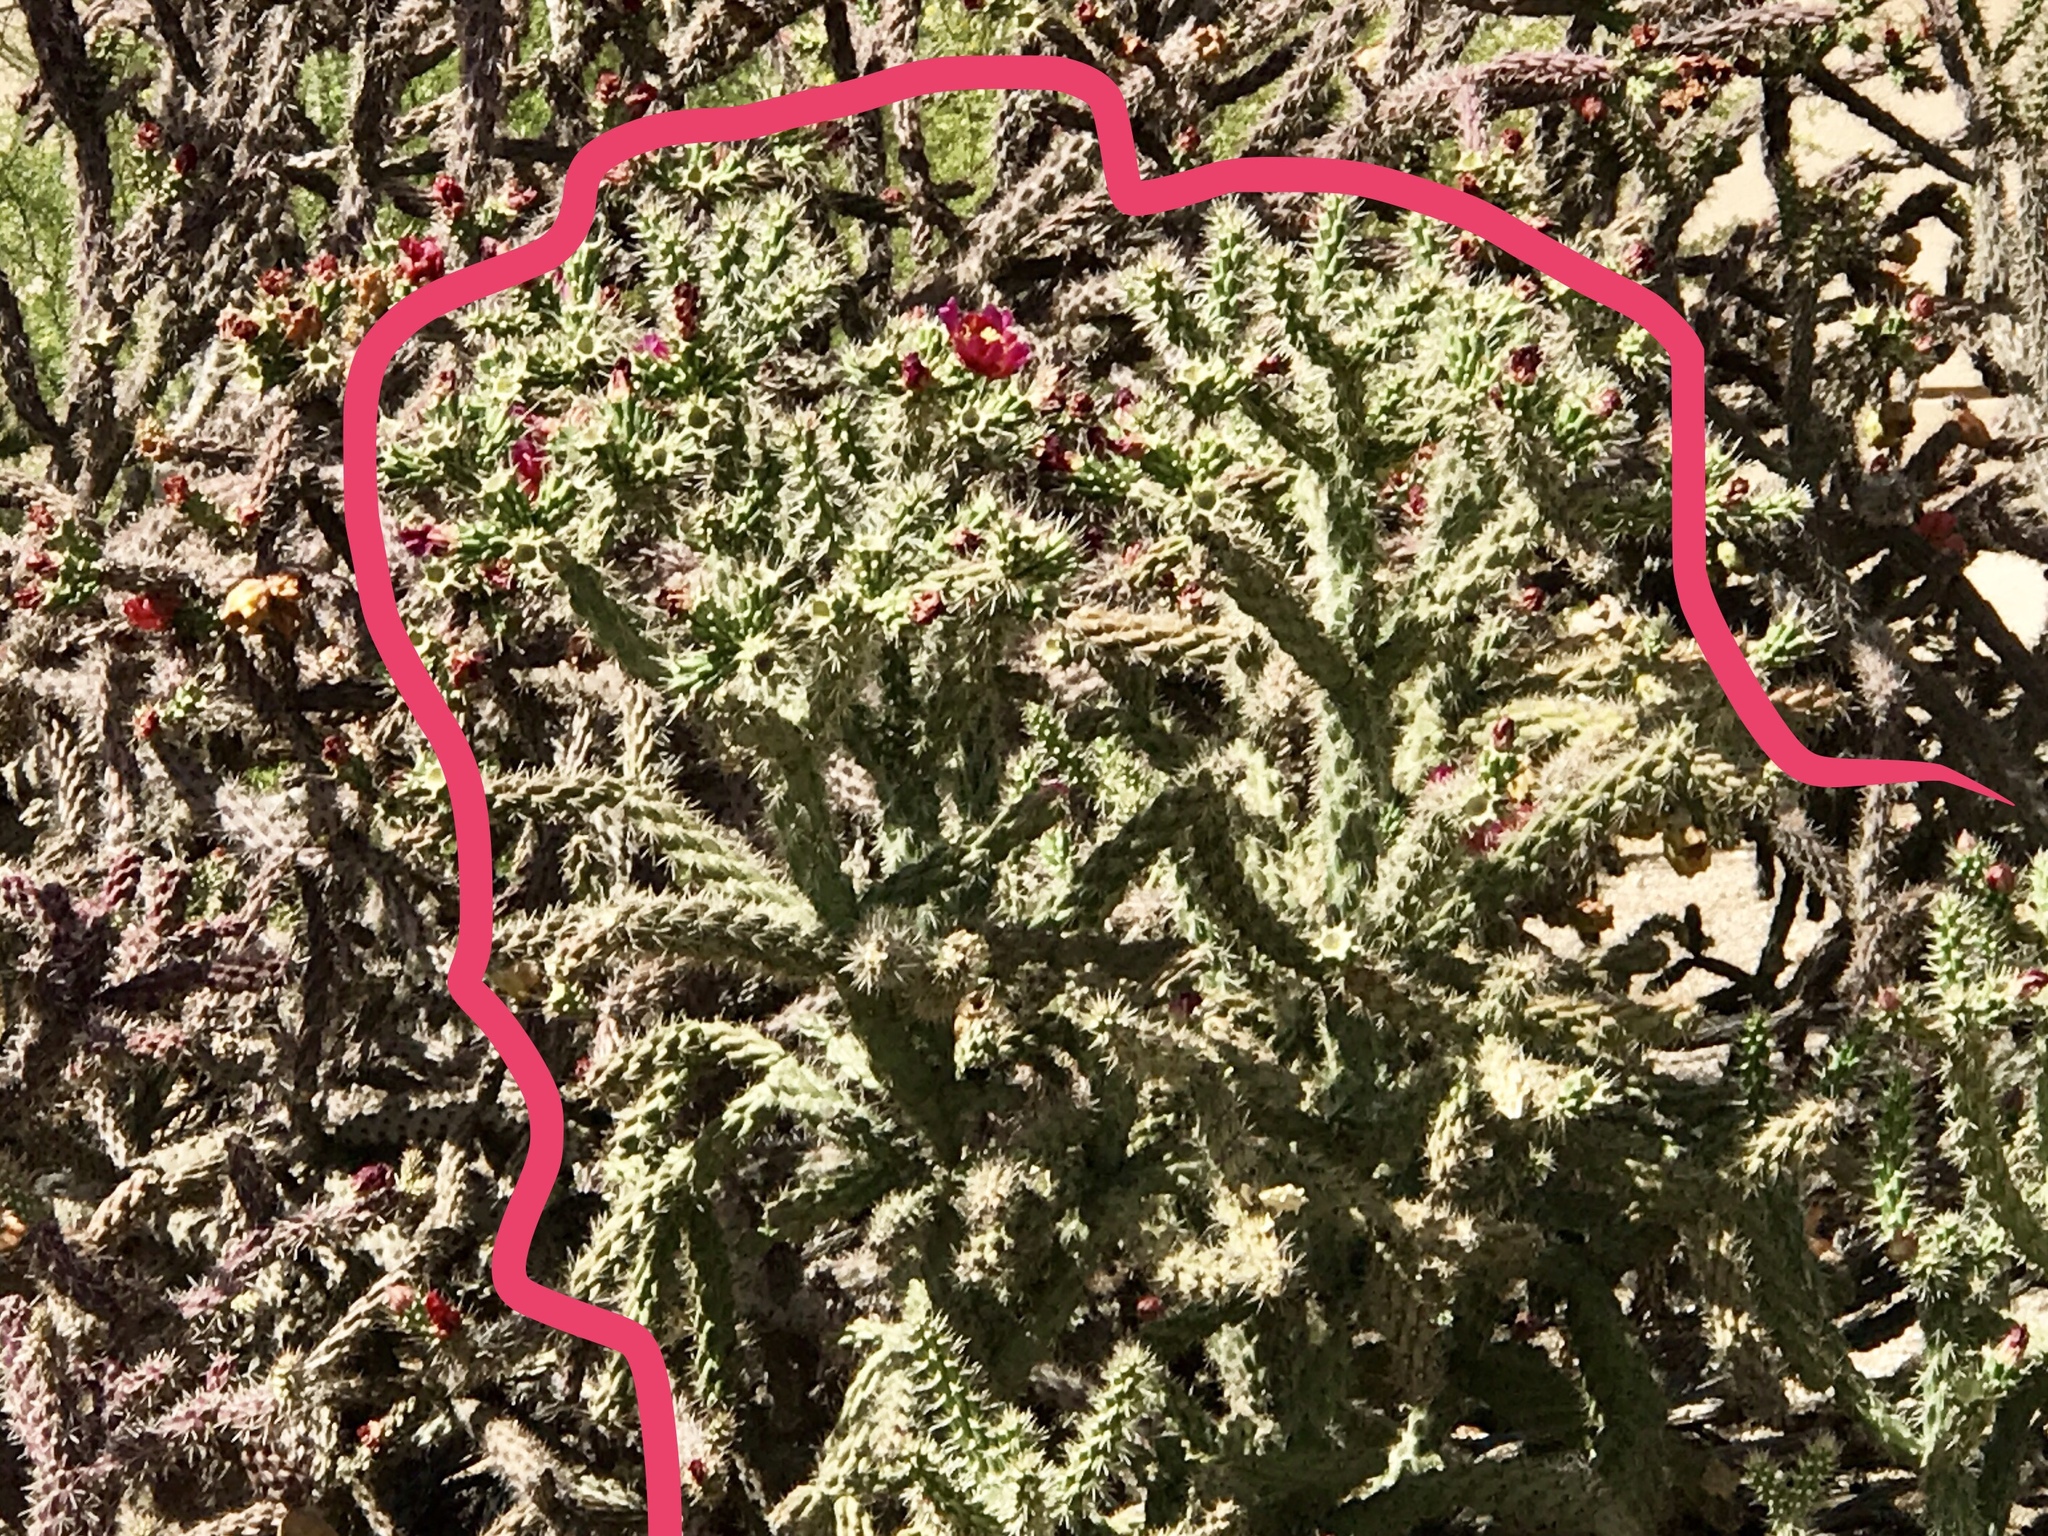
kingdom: Plantae
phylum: Tracheophyta
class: Magnoliopsida
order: Caryophyllales
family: Cactaceae
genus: Cylindropuntia
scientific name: Cylindropuntia acanthocarpa
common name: Buckhorn cholla
